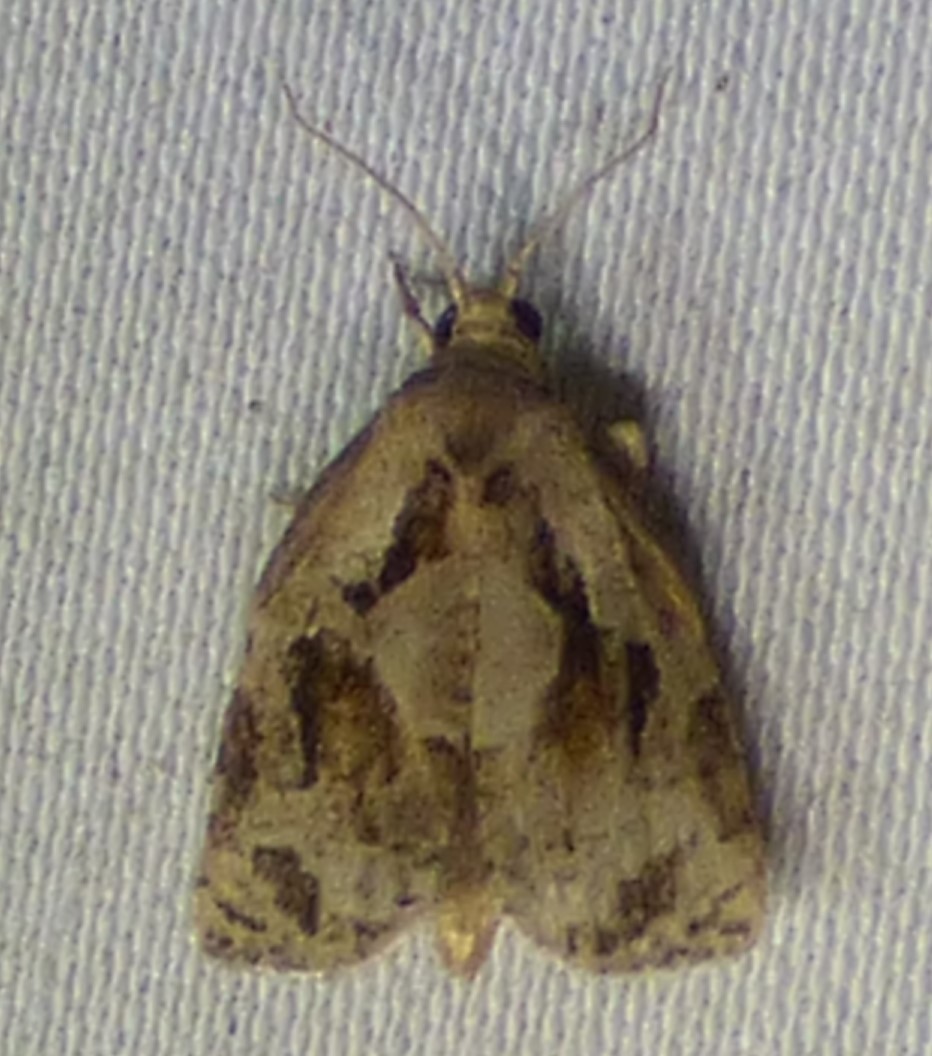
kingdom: Animalia
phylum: Arthropoda
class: Insecta
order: Lepidoptera
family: Tortricidae
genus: Archips
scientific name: Archips grisea
